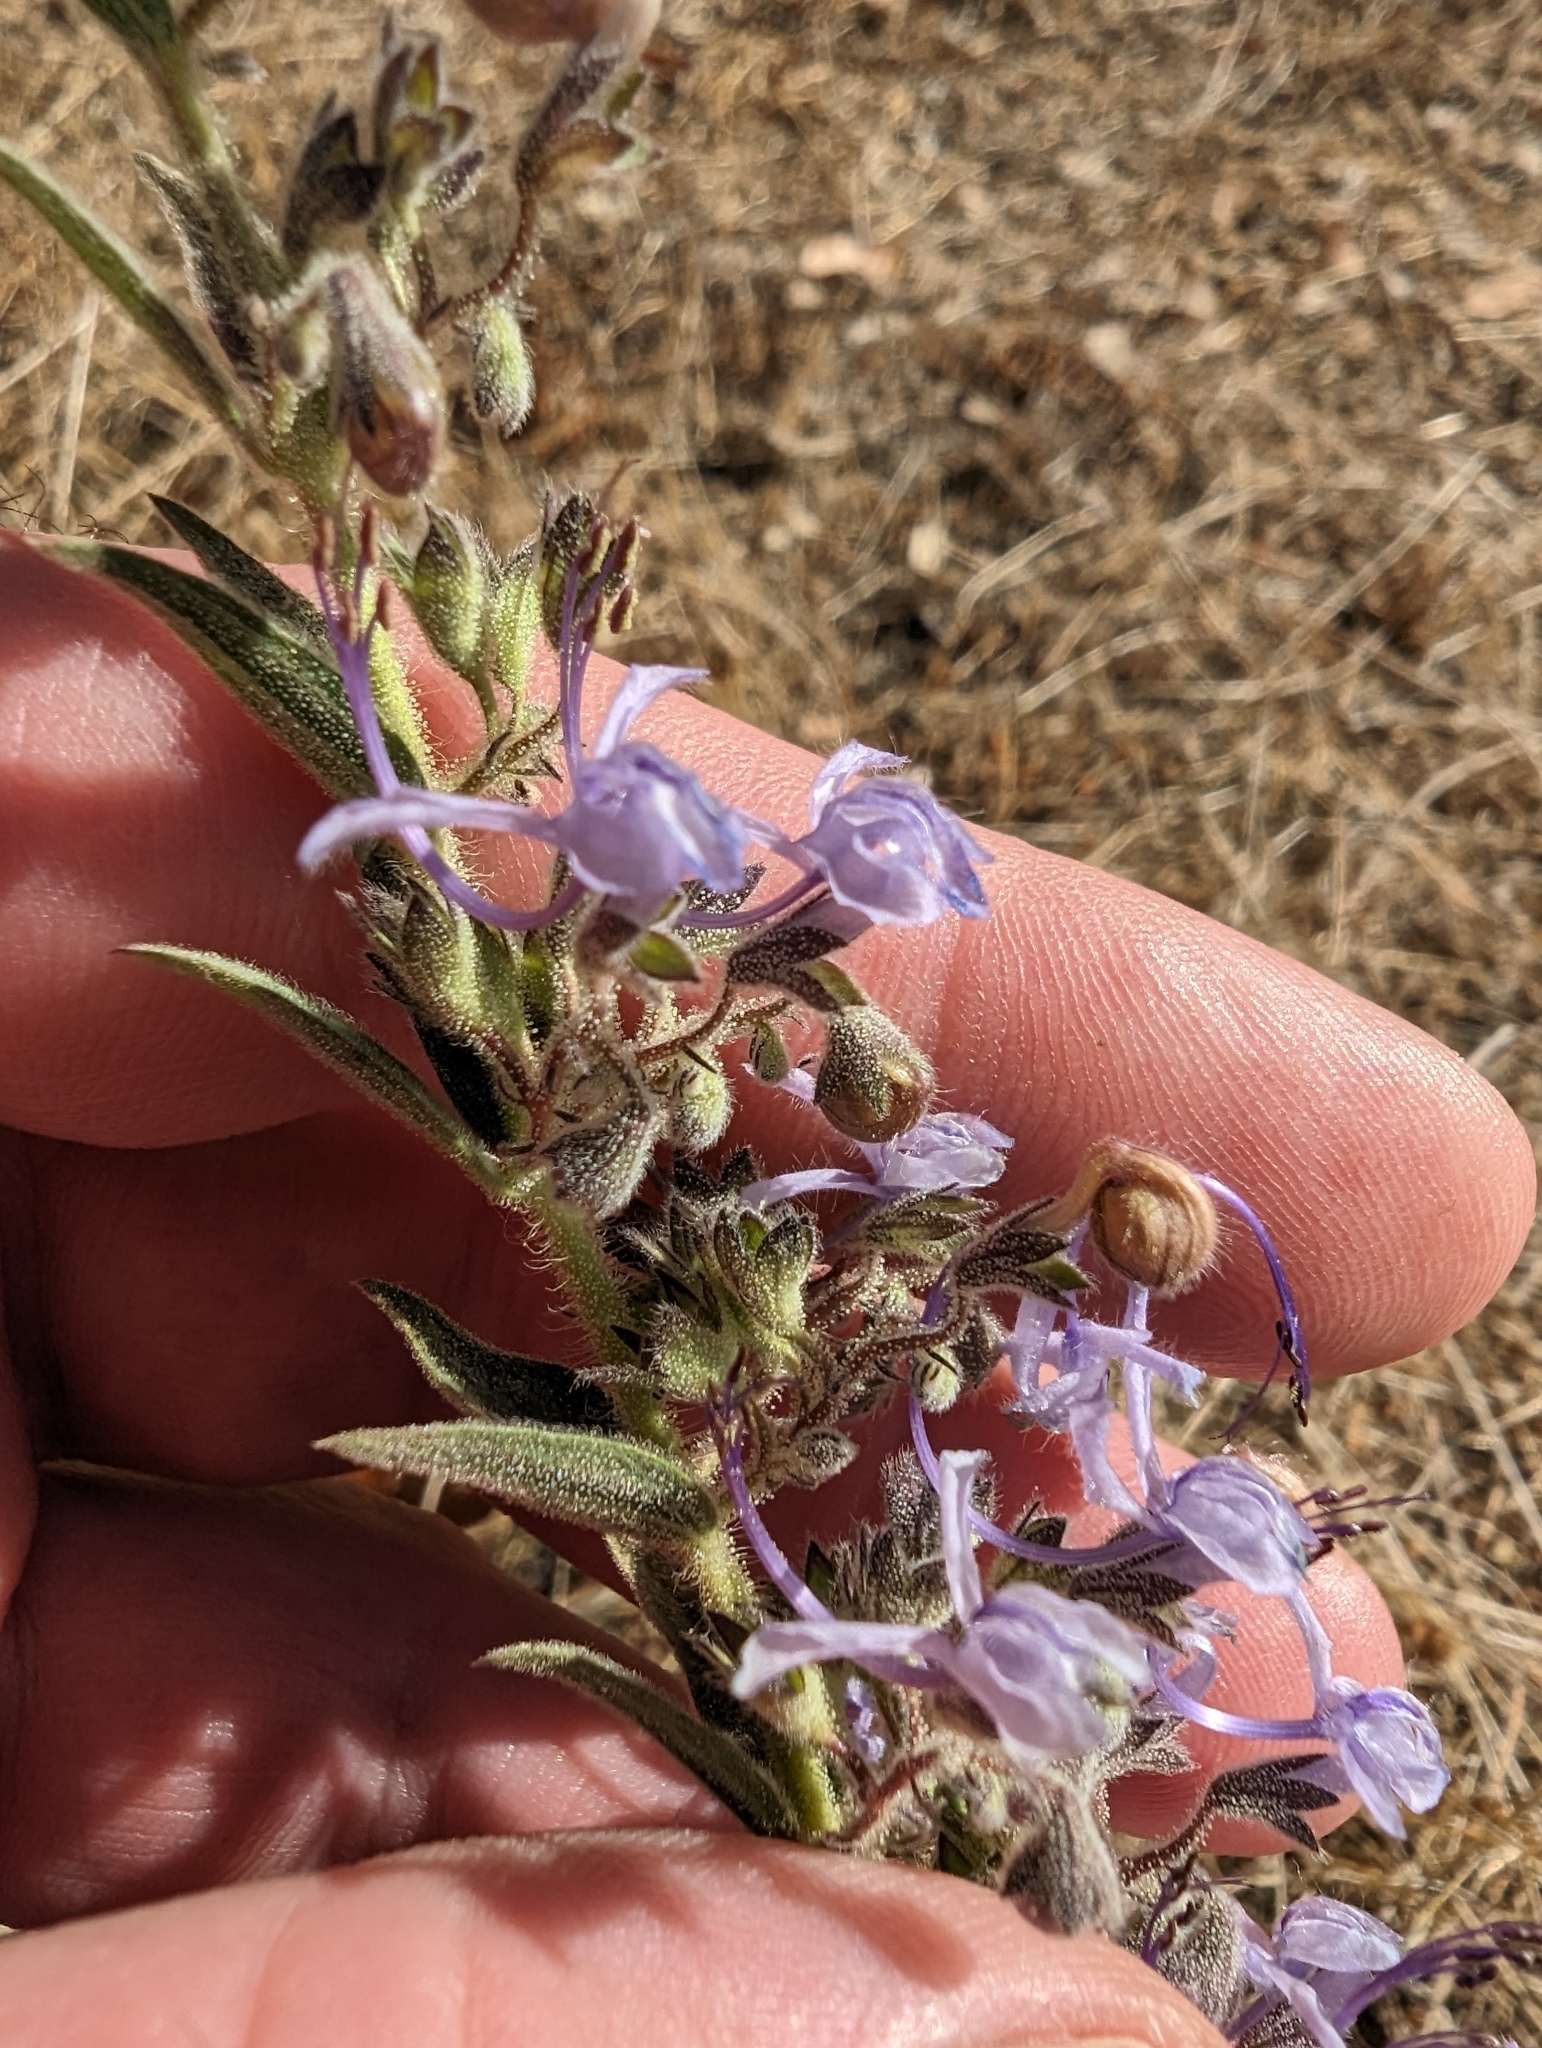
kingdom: Plantae
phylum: Tracheophyta
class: Magnoliopsida
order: Lamiales
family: Lamiaceae
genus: Trichostema
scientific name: Trichostema lanceolatum
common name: Vinegar-weed
